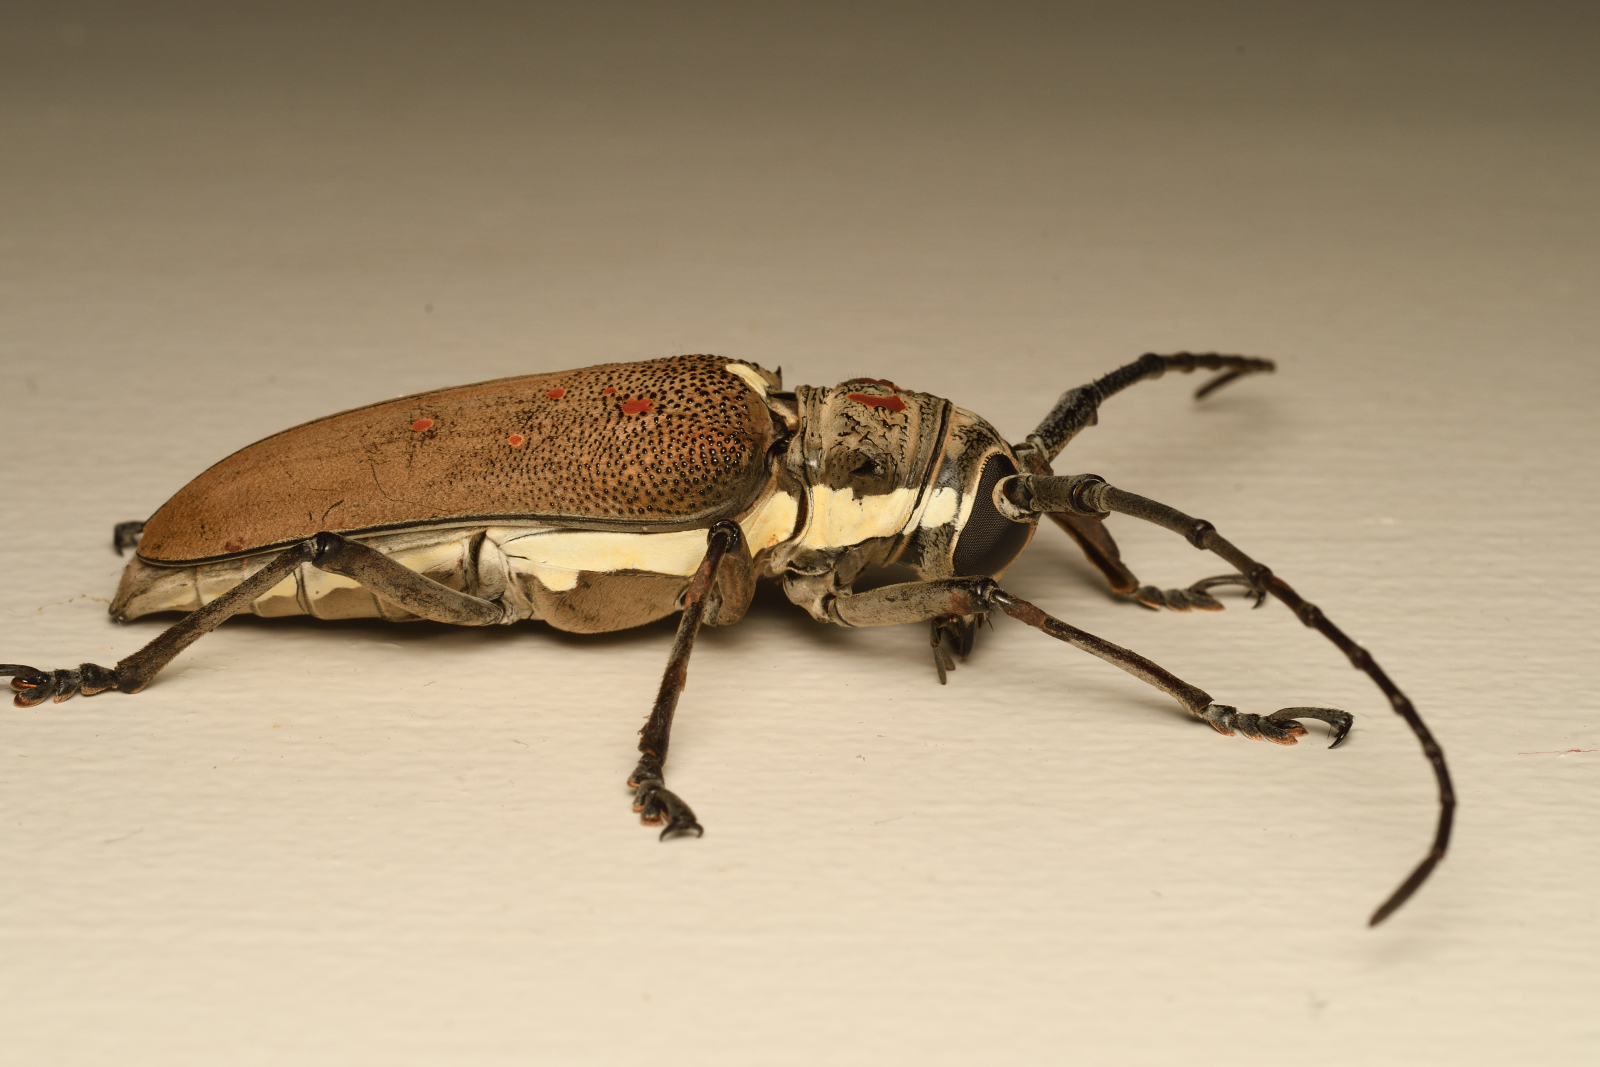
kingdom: Animalia
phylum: Arthropoda
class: Insecta
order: Coleoptera
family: Cerambycidae
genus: Batocera
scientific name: Batocera rufomaculata
